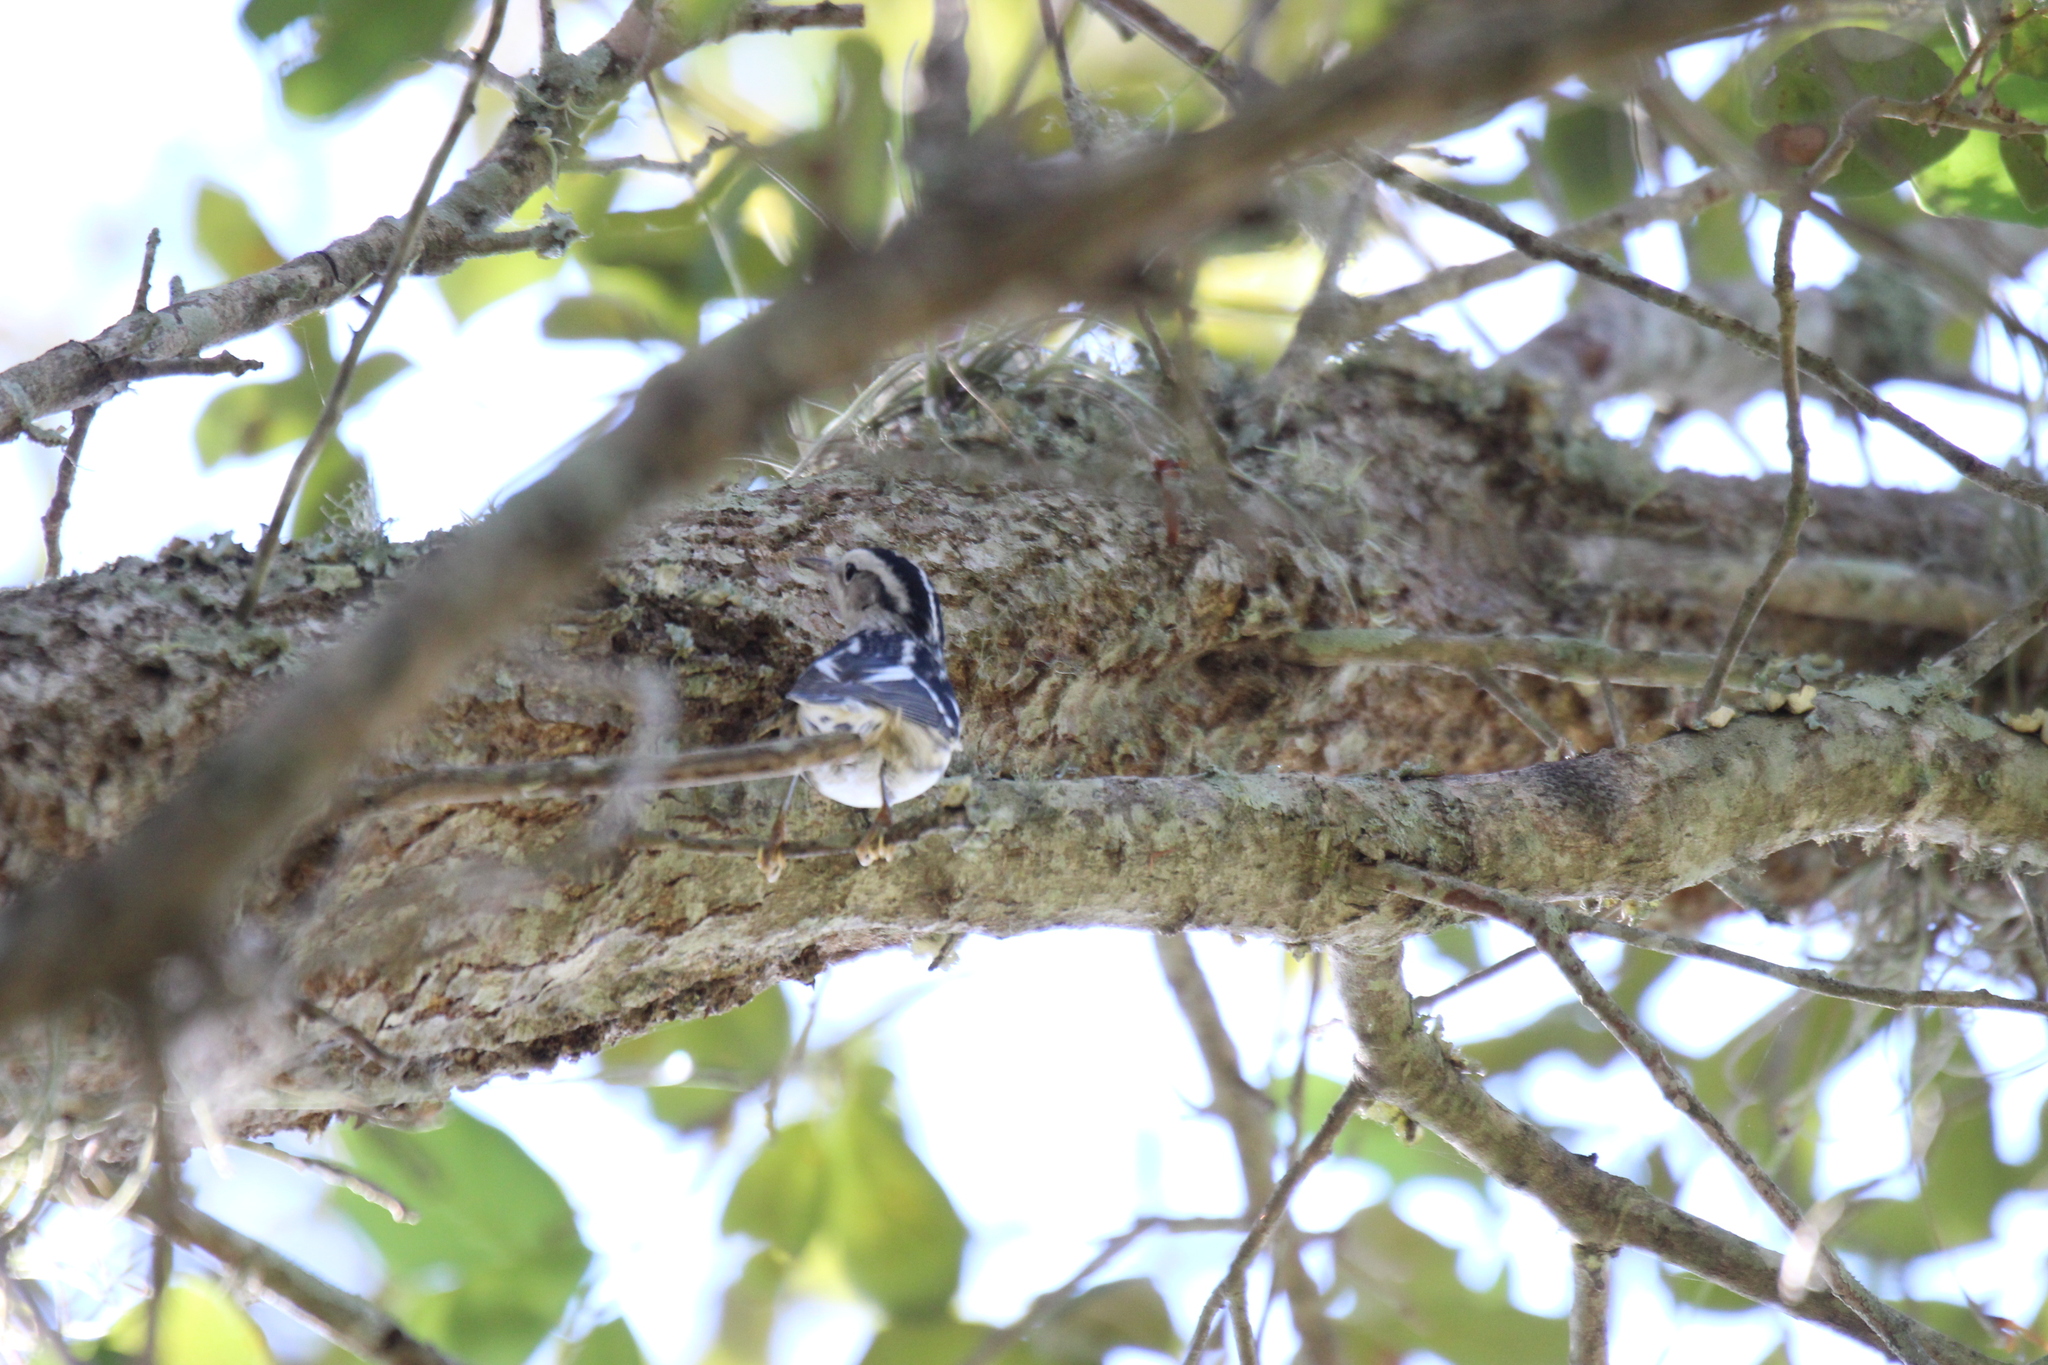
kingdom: Animalia
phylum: Chordata
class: Aves
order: Passeriformes
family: Parulidae
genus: Mniotilta
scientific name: Mniotilta varia
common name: Black-and-white warbler
